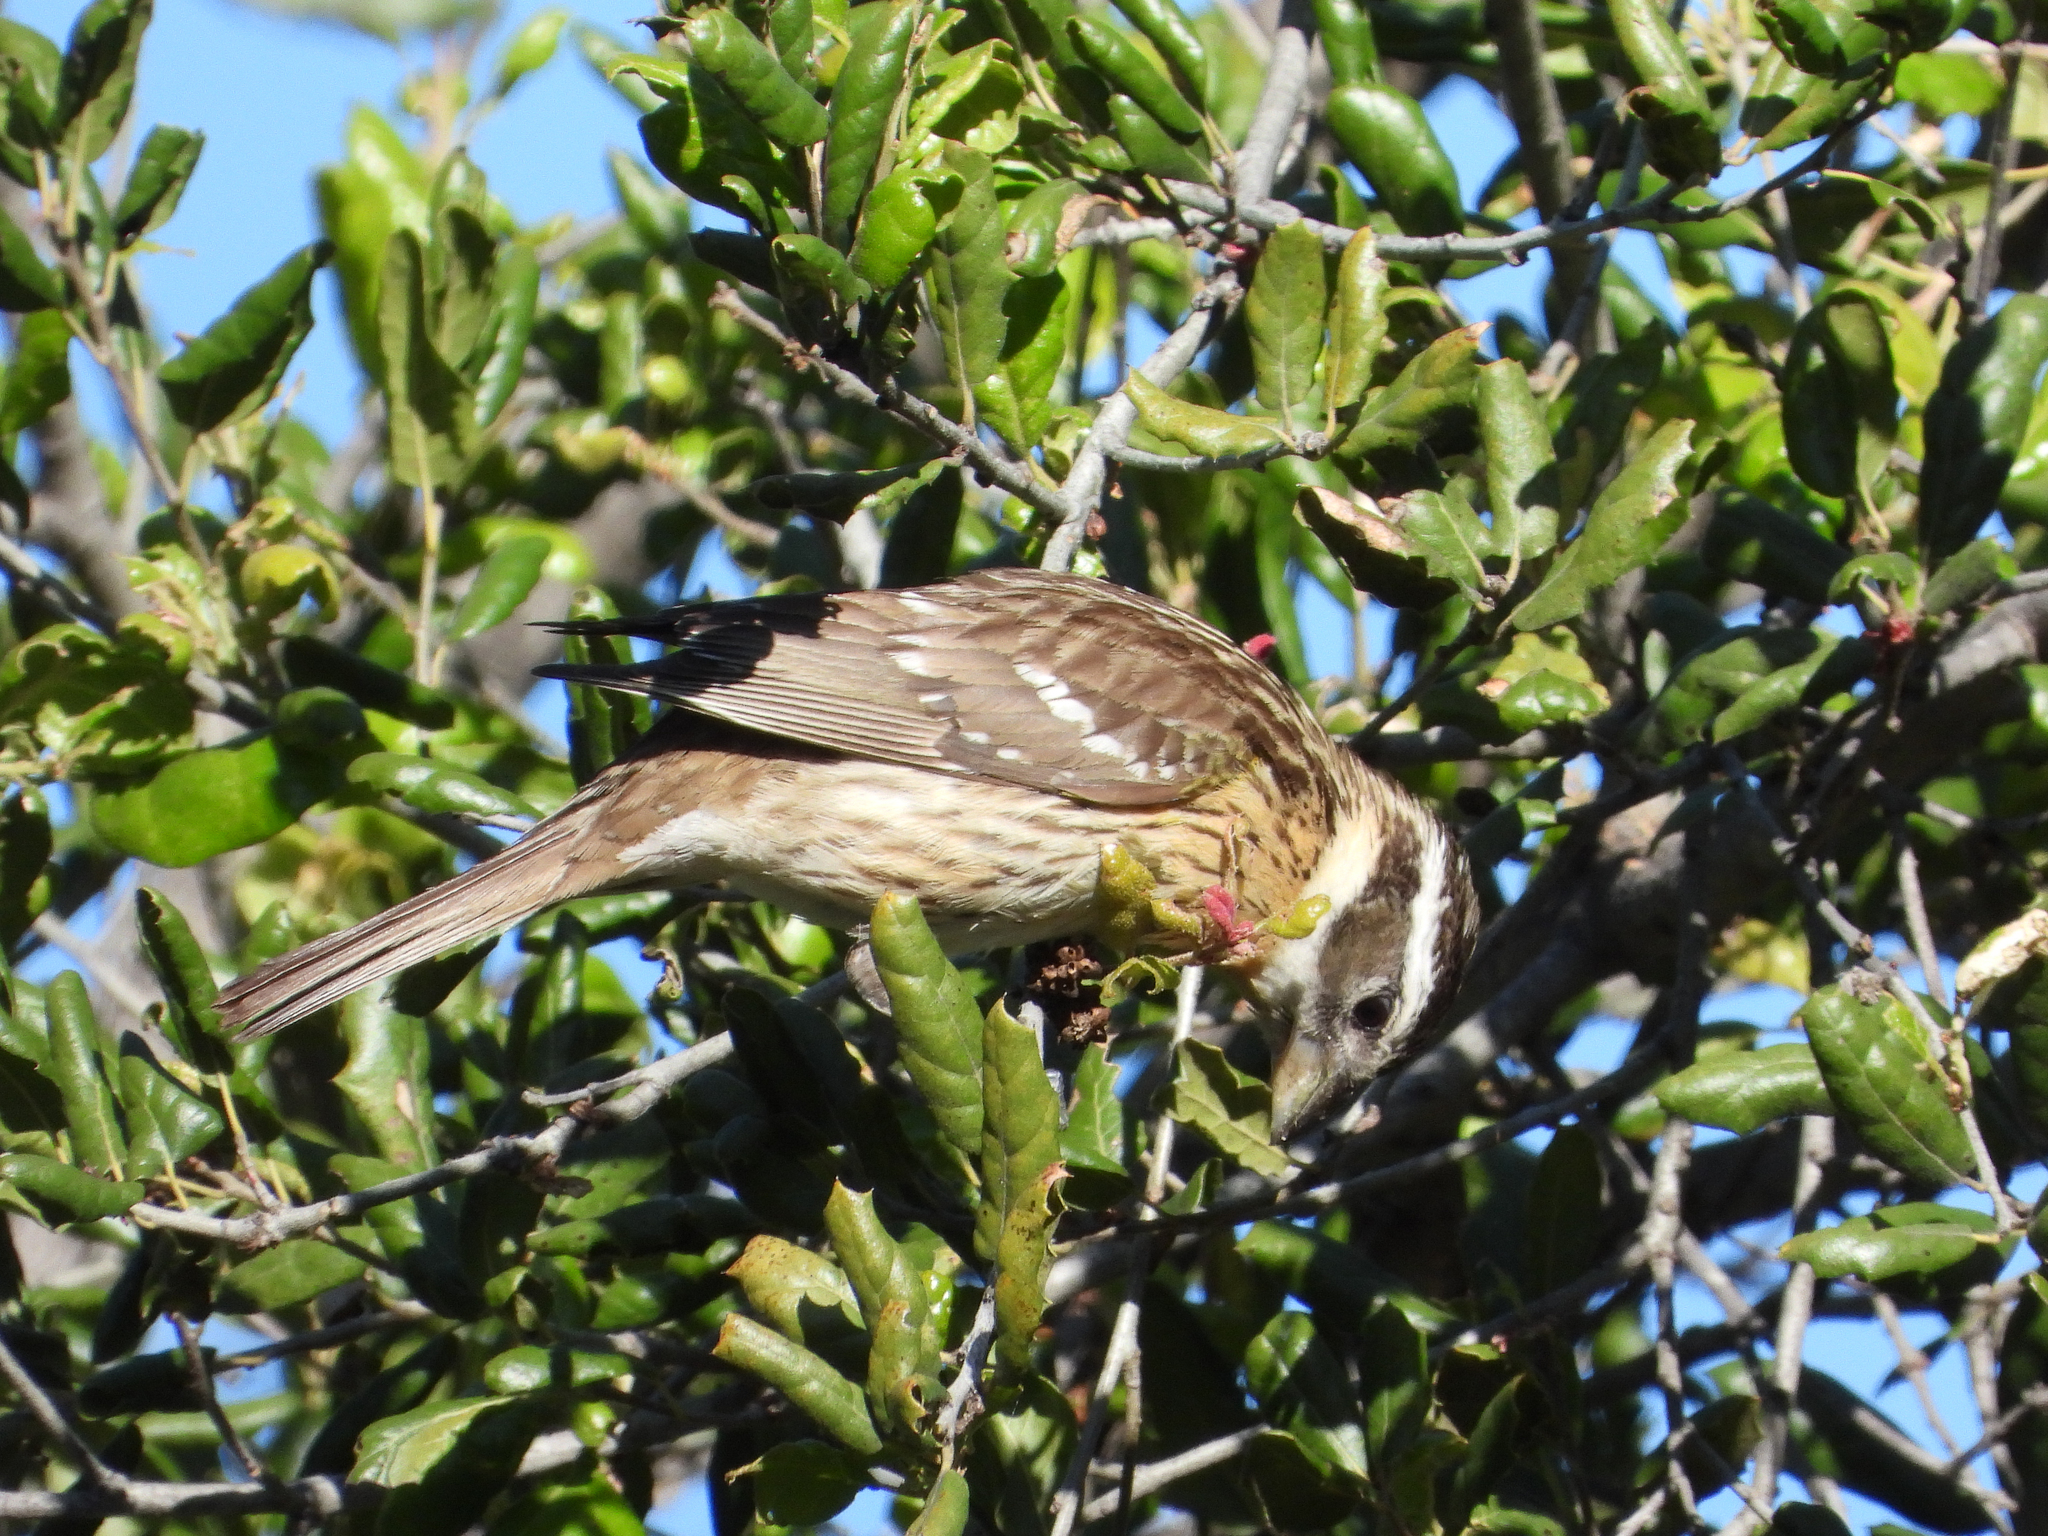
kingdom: Animalia
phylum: Chordata
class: Aves
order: Passeriformes
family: Cardinalidae
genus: Pheucticus
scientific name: Pheucticus melanocephalus
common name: Black-headed grosbeak
